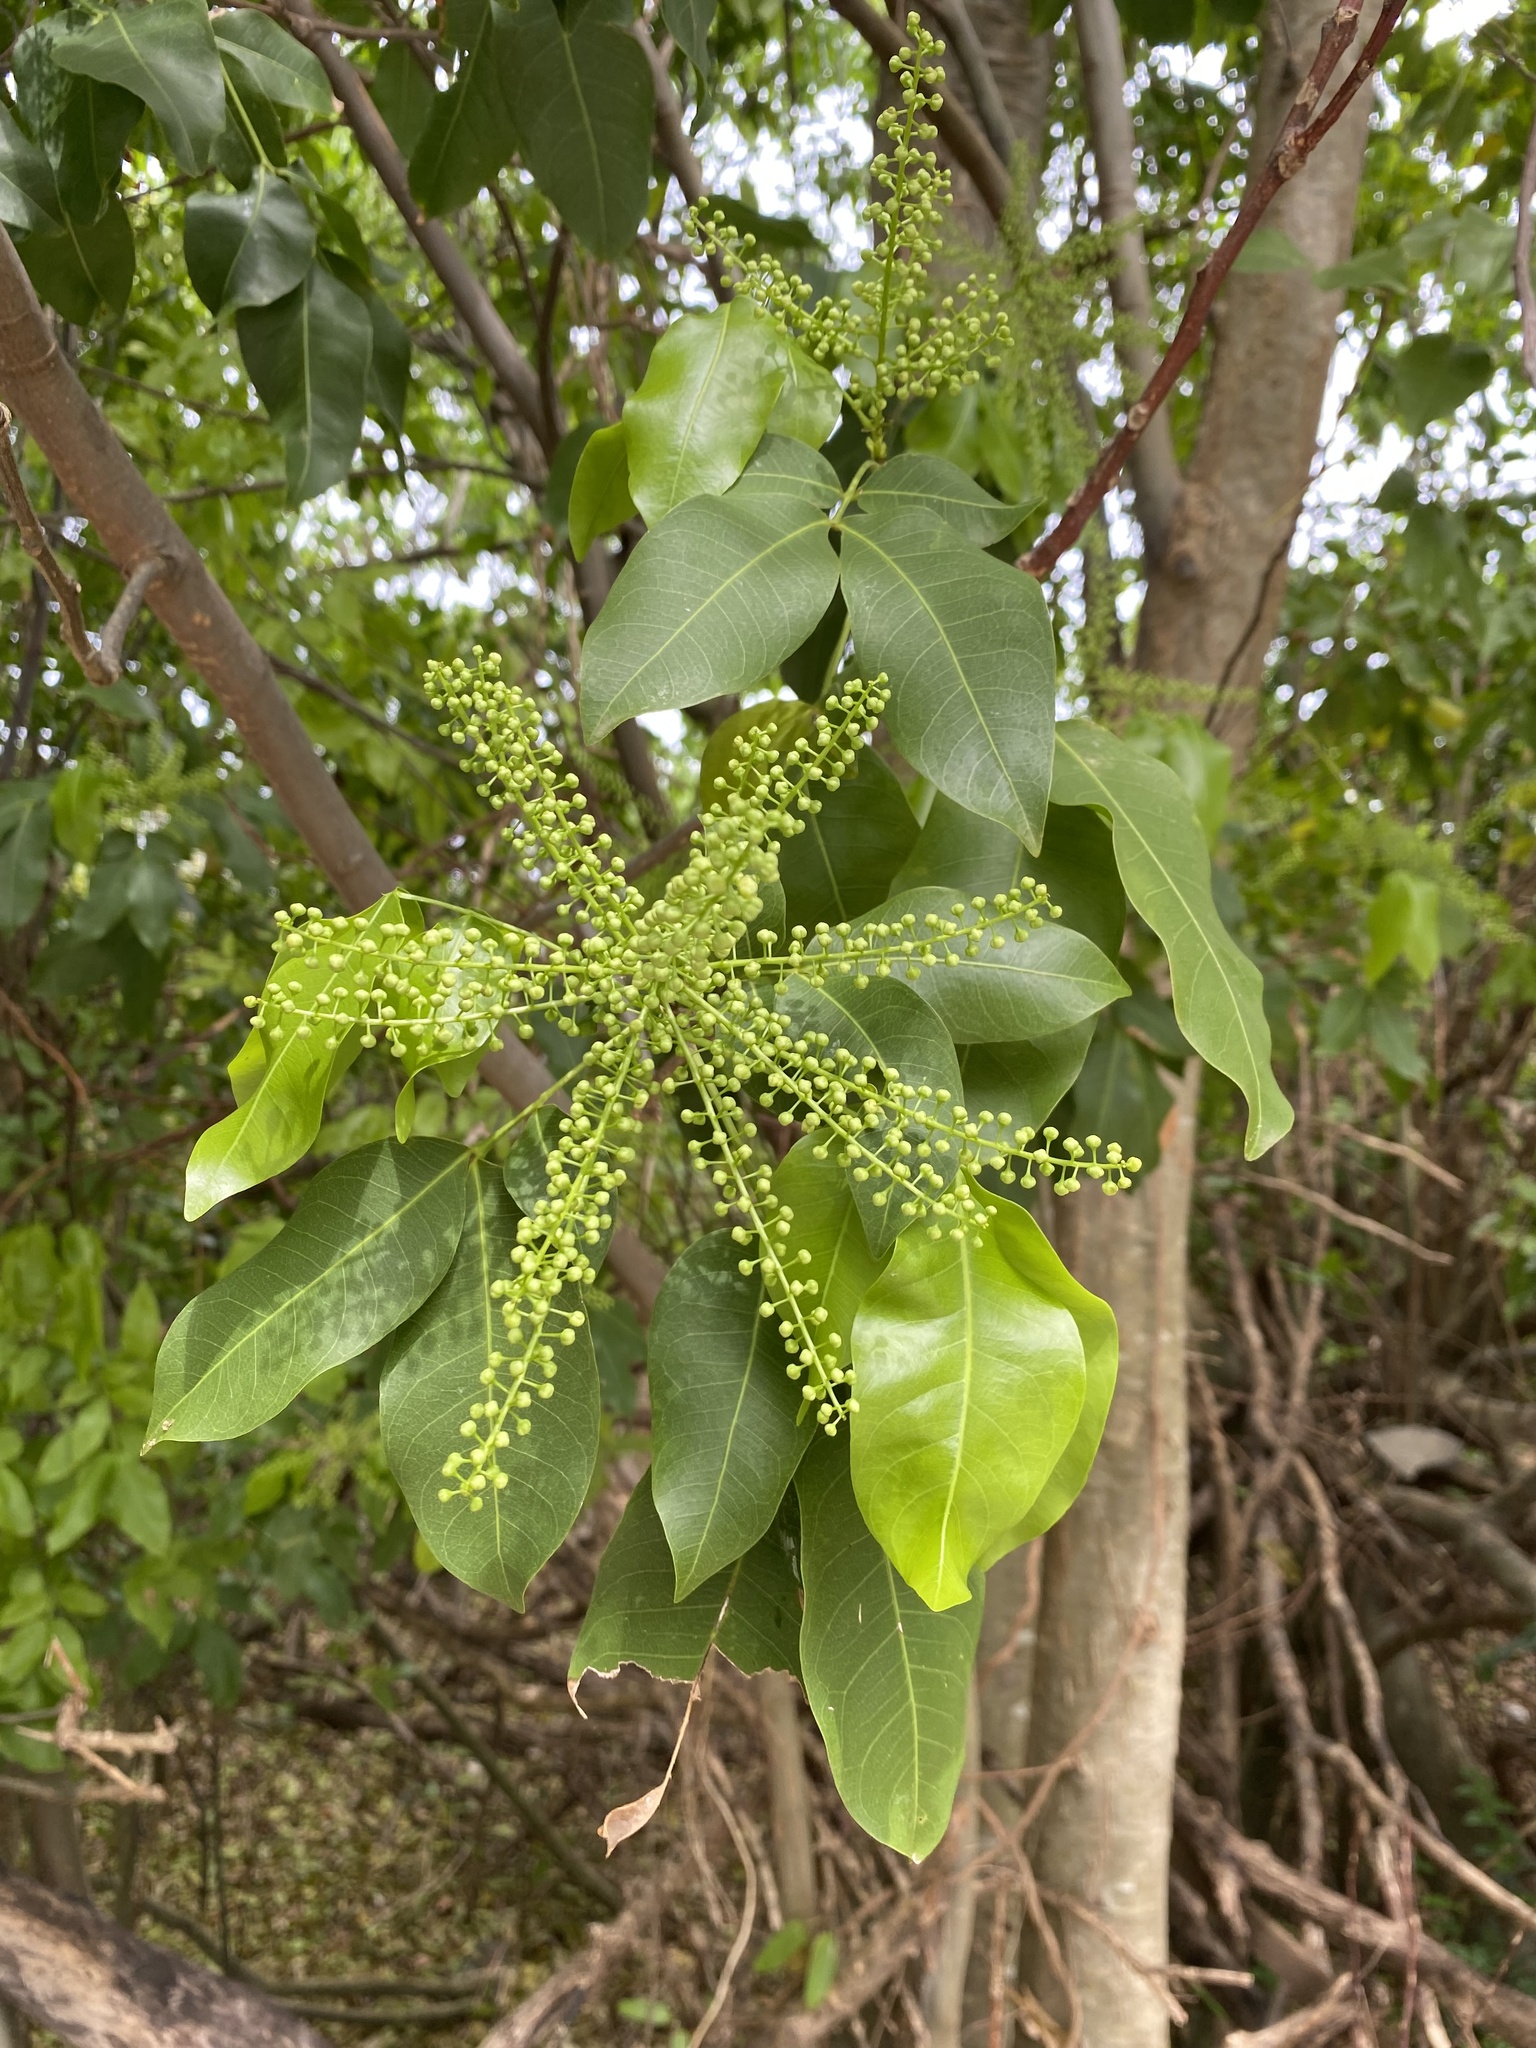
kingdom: Plantae
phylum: Tracheophyta
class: Magnoliopsida
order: Sapindales
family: Sapindaceae
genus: Melicoccus
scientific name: Melicoccus bijugatus
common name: Spanish lime
